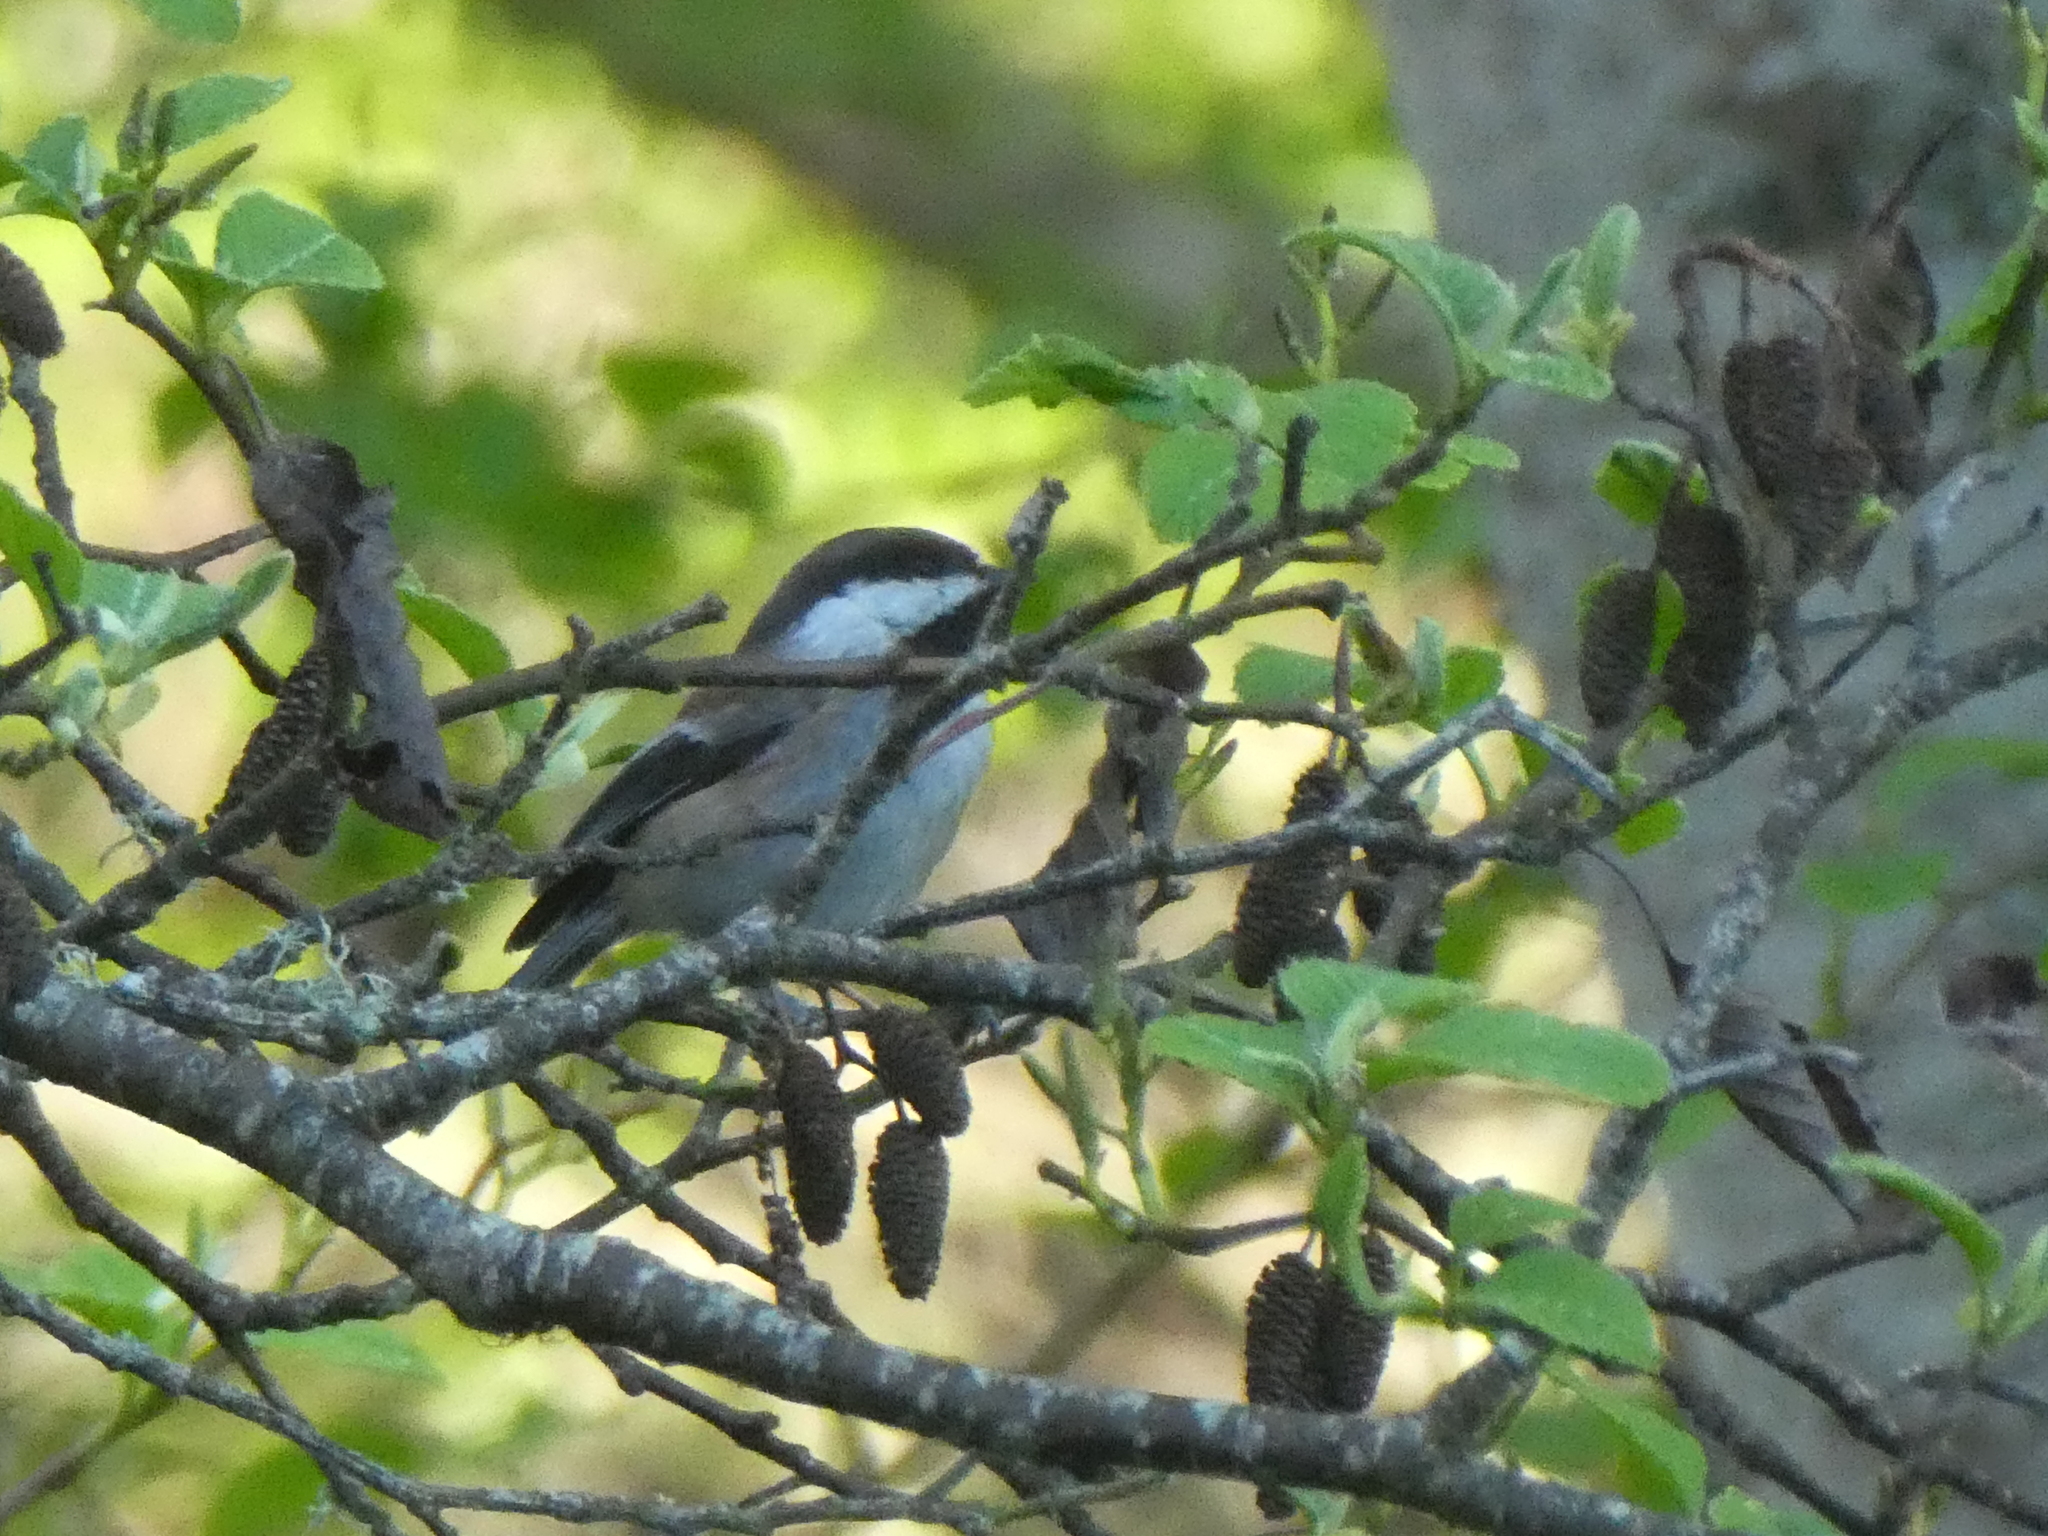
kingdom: Animalia
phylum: Chordata
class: Aves
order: Passeriformes
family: Paridae
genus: Poecile
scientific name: Poecile rufescens
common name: Chestnut-backed chickadee
